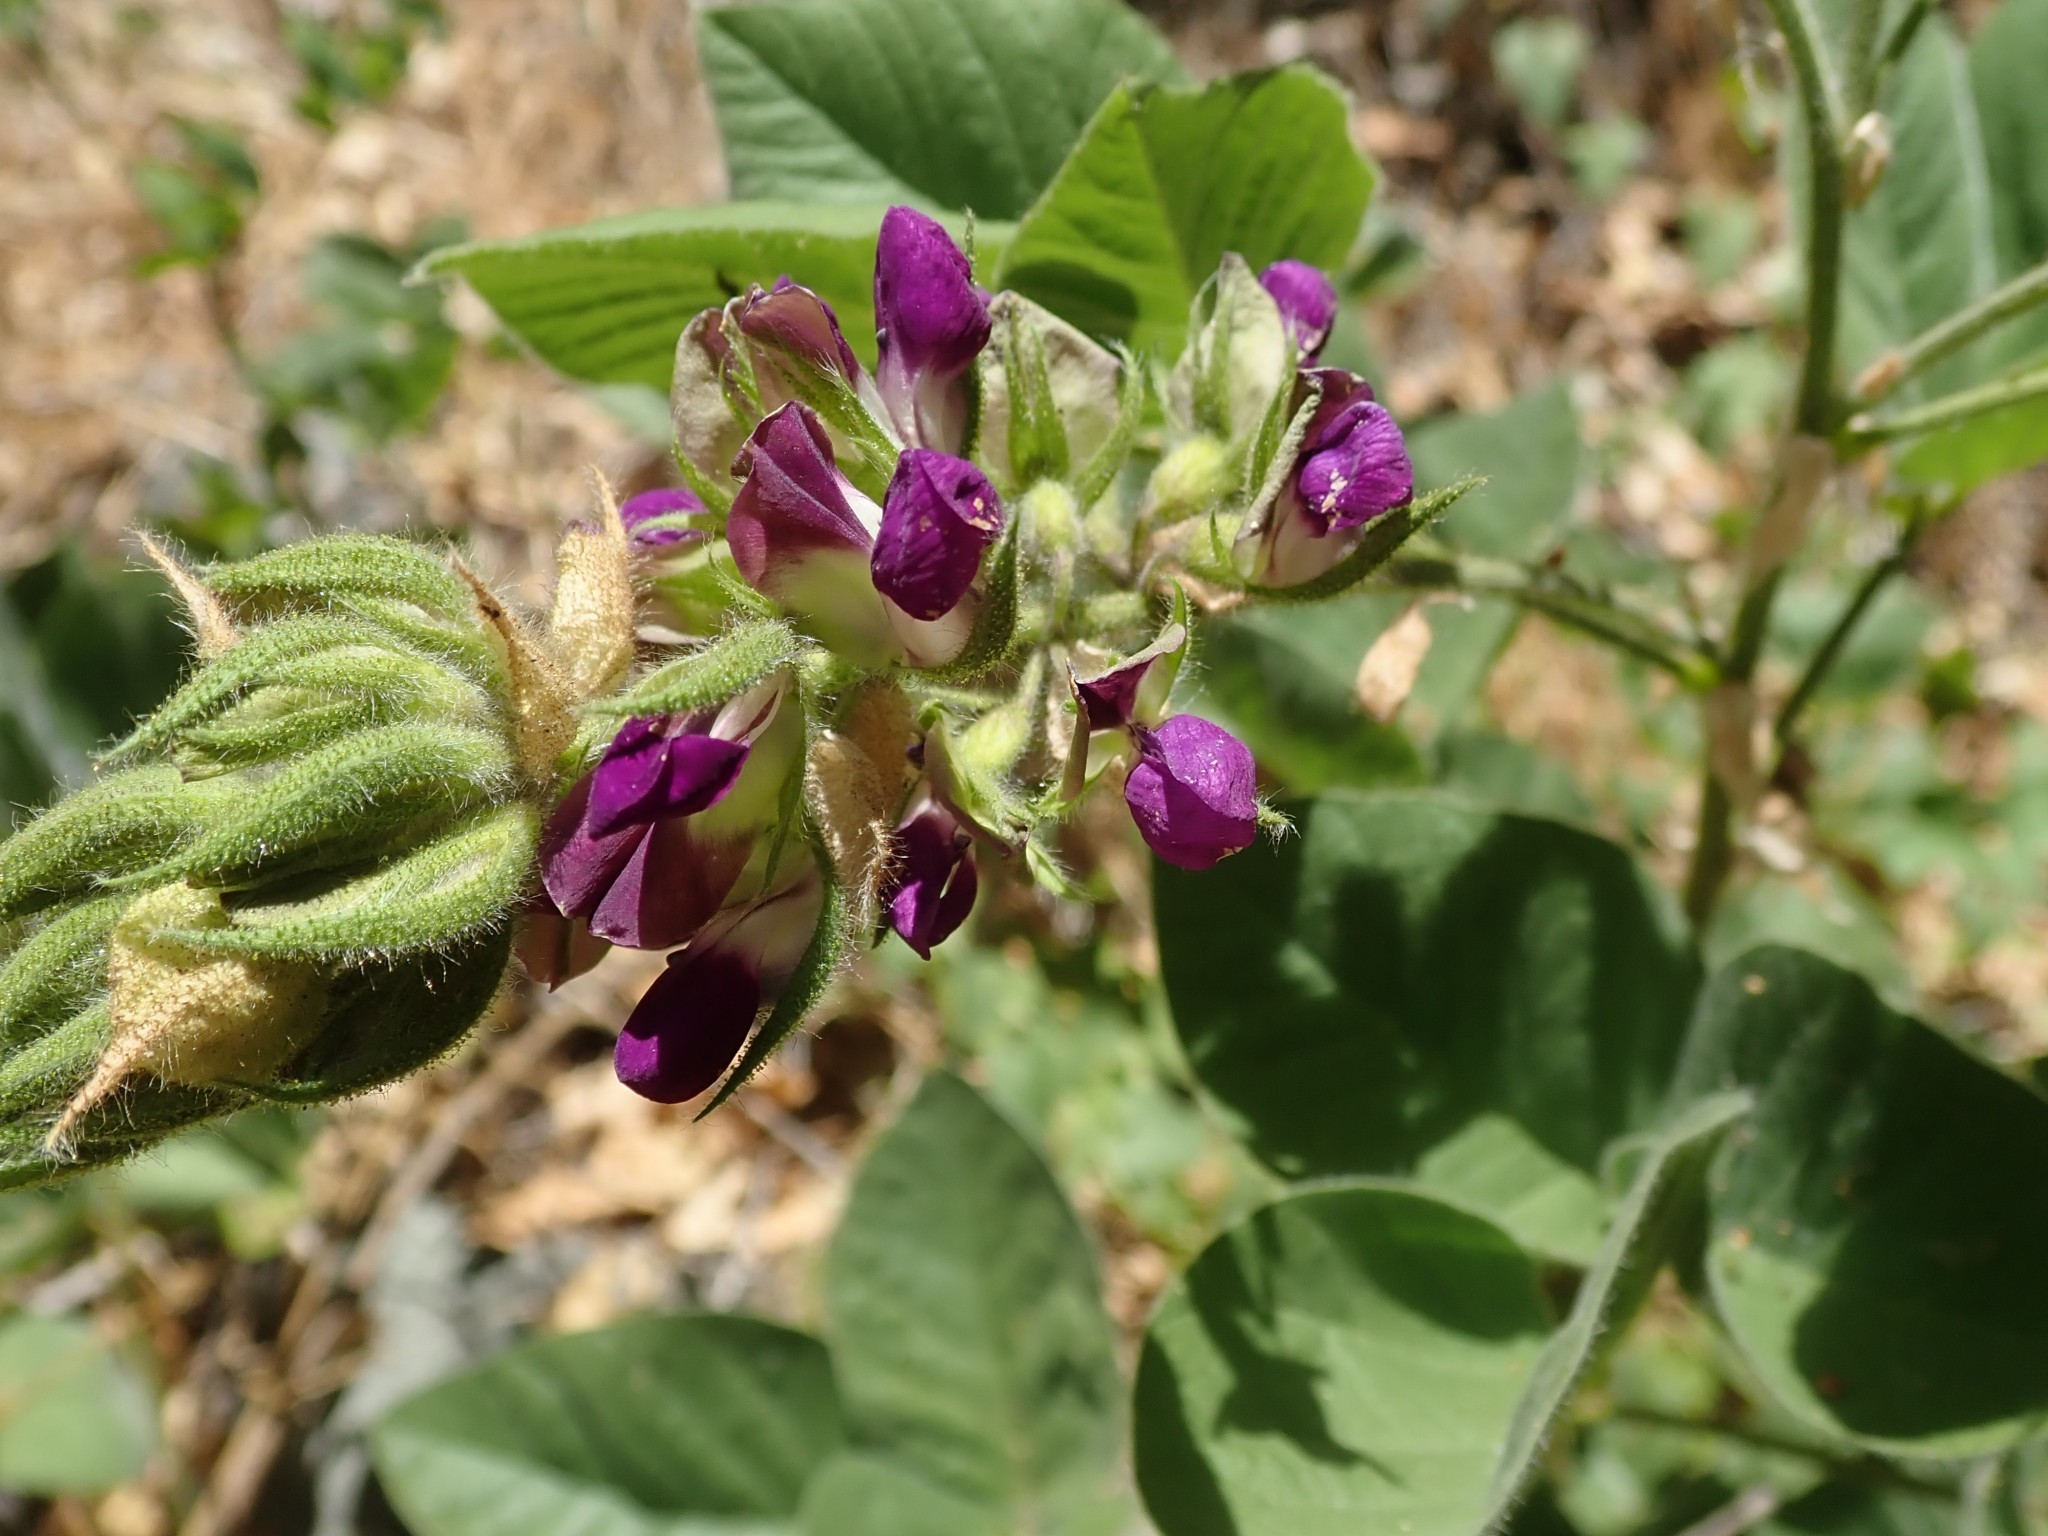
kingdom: Plantae
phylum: Tracheophyta
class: Magnoliopsida
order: Fabales
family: Fabaceae
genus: Hoita
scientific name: Hoita strobilina
